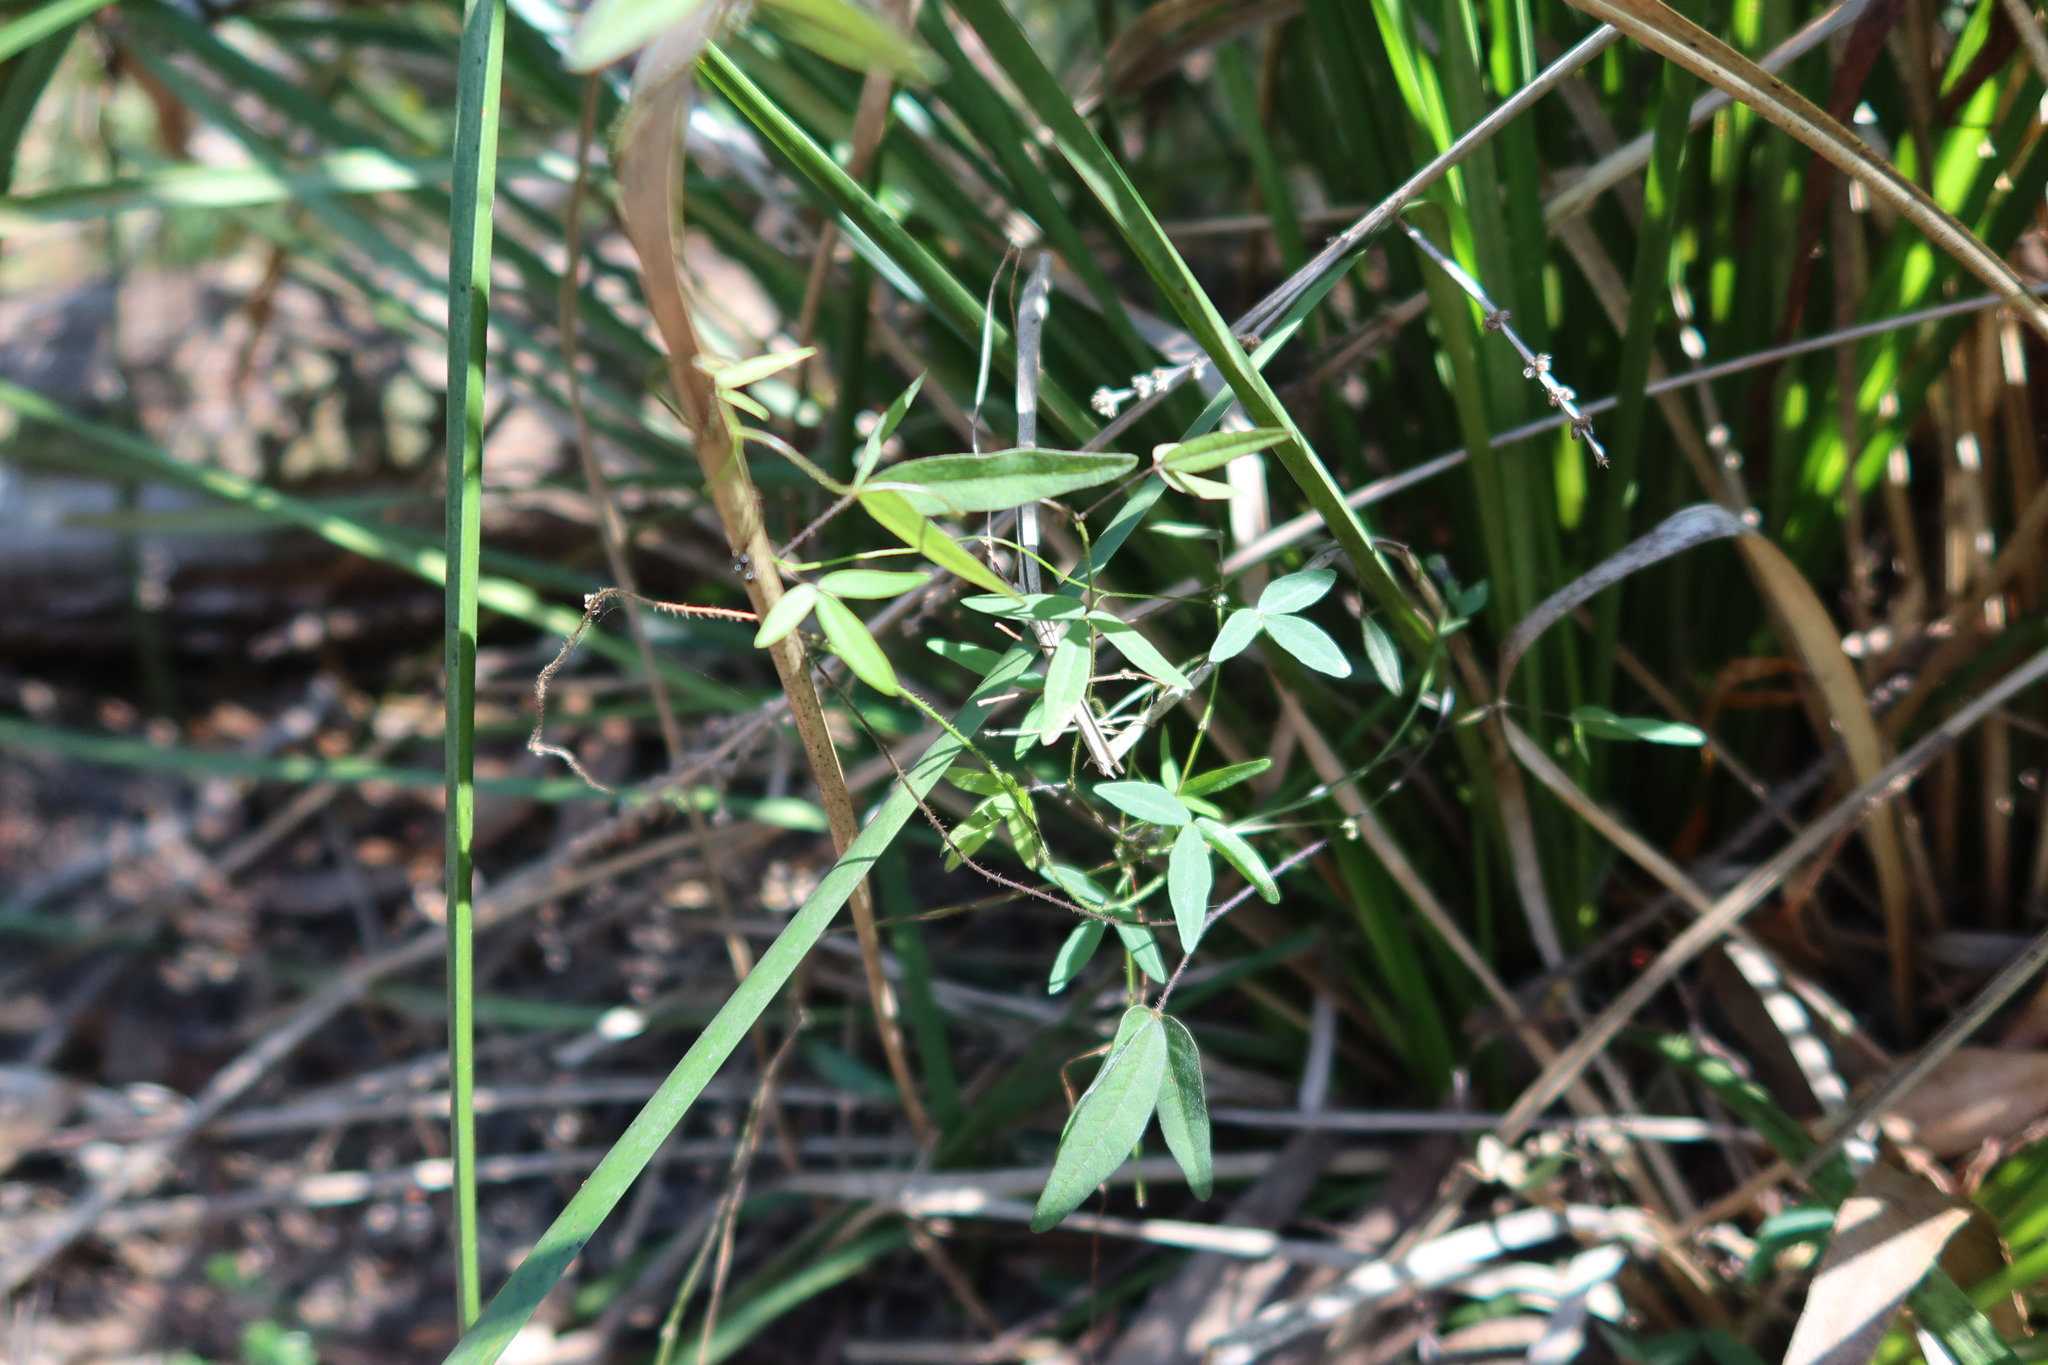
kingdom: Plantae
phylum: Tracheophyta
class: Magnoliopsida
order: Fabales
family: Fabaceae
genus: Glycine
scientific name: Glycine clandestina
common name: Twining glycine
